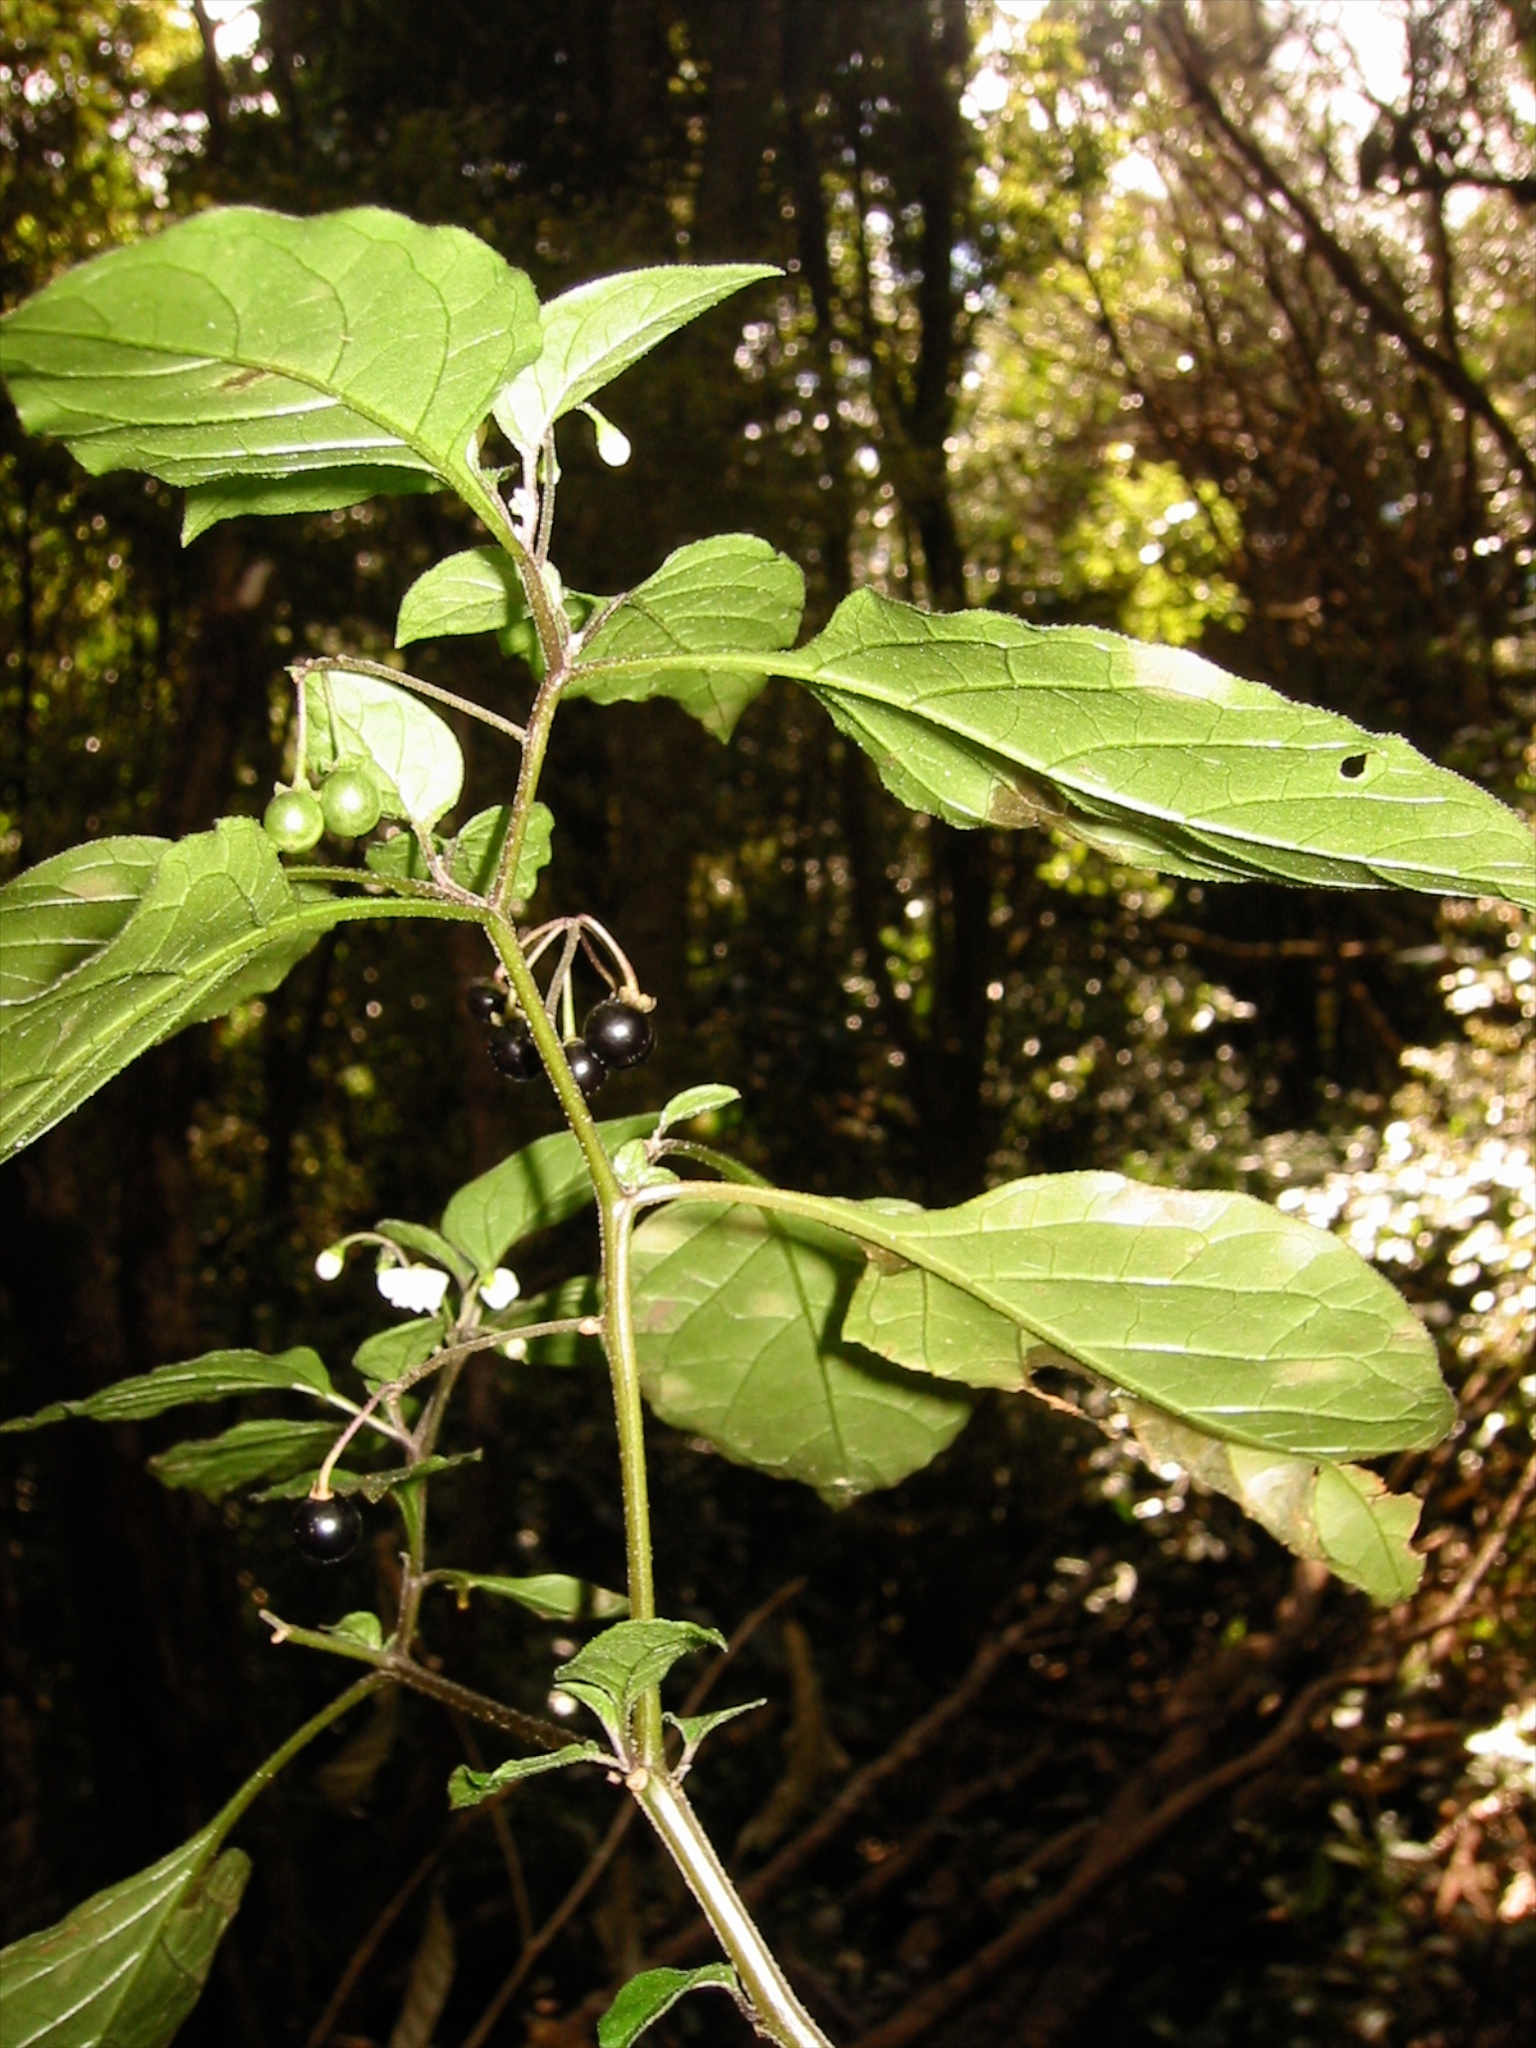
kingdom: Plantae
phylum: Tracheophyta
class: Magnoliopsida
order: Solanales
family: Solanaceae
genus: Solanum
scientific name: Solanum nigrum
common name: Black nightshade
